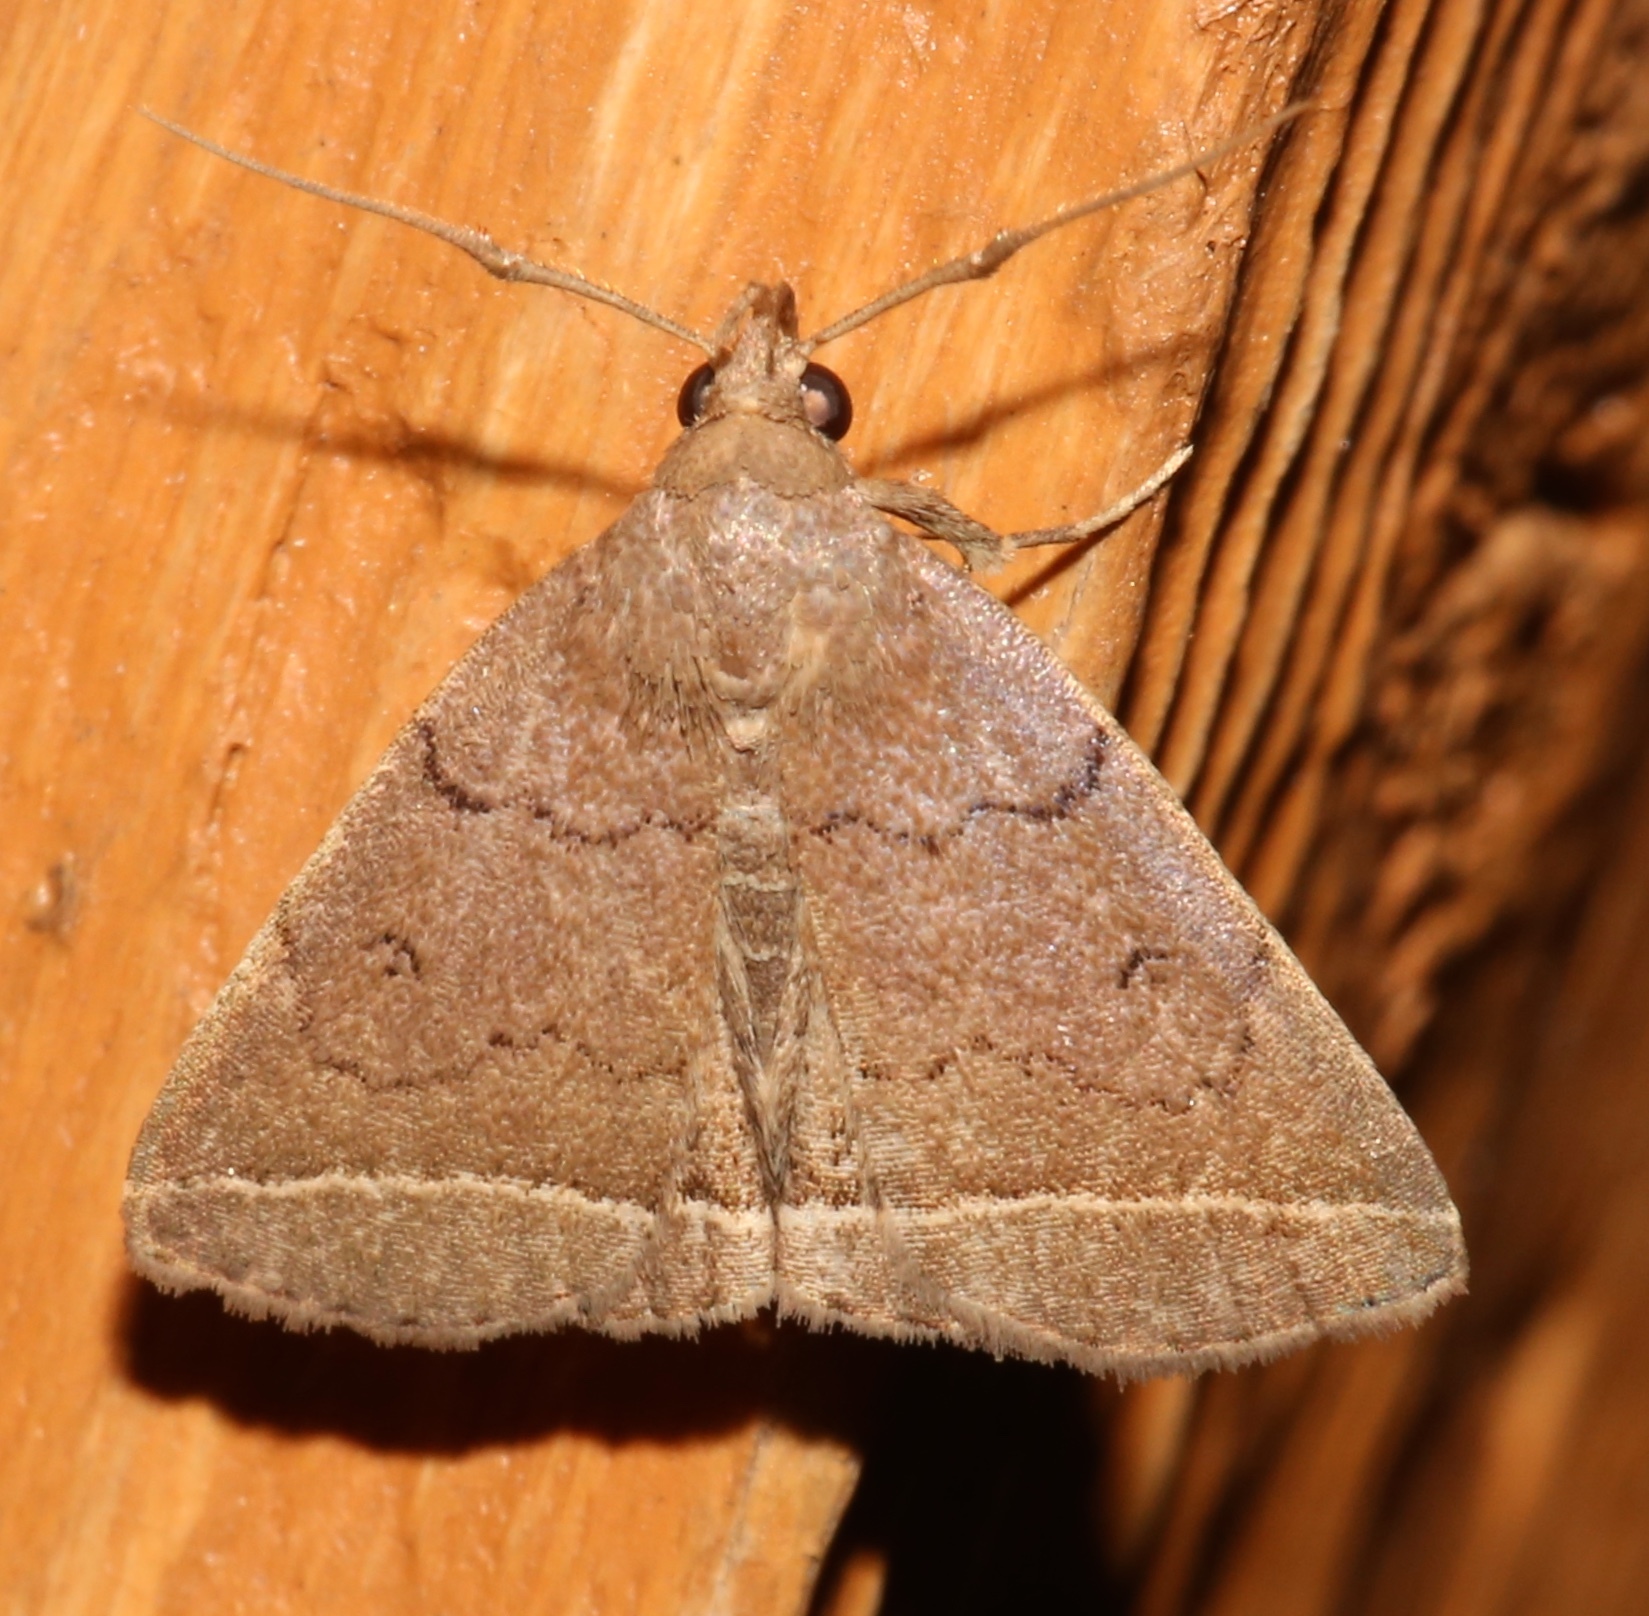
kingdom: Animalia
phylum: Arthropoda
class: Insecta
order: Lepidoptera
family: Erebidae
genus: Zanclognatha
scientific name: Zanclognatha marcidilinea
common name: Yellowish fan-foot
